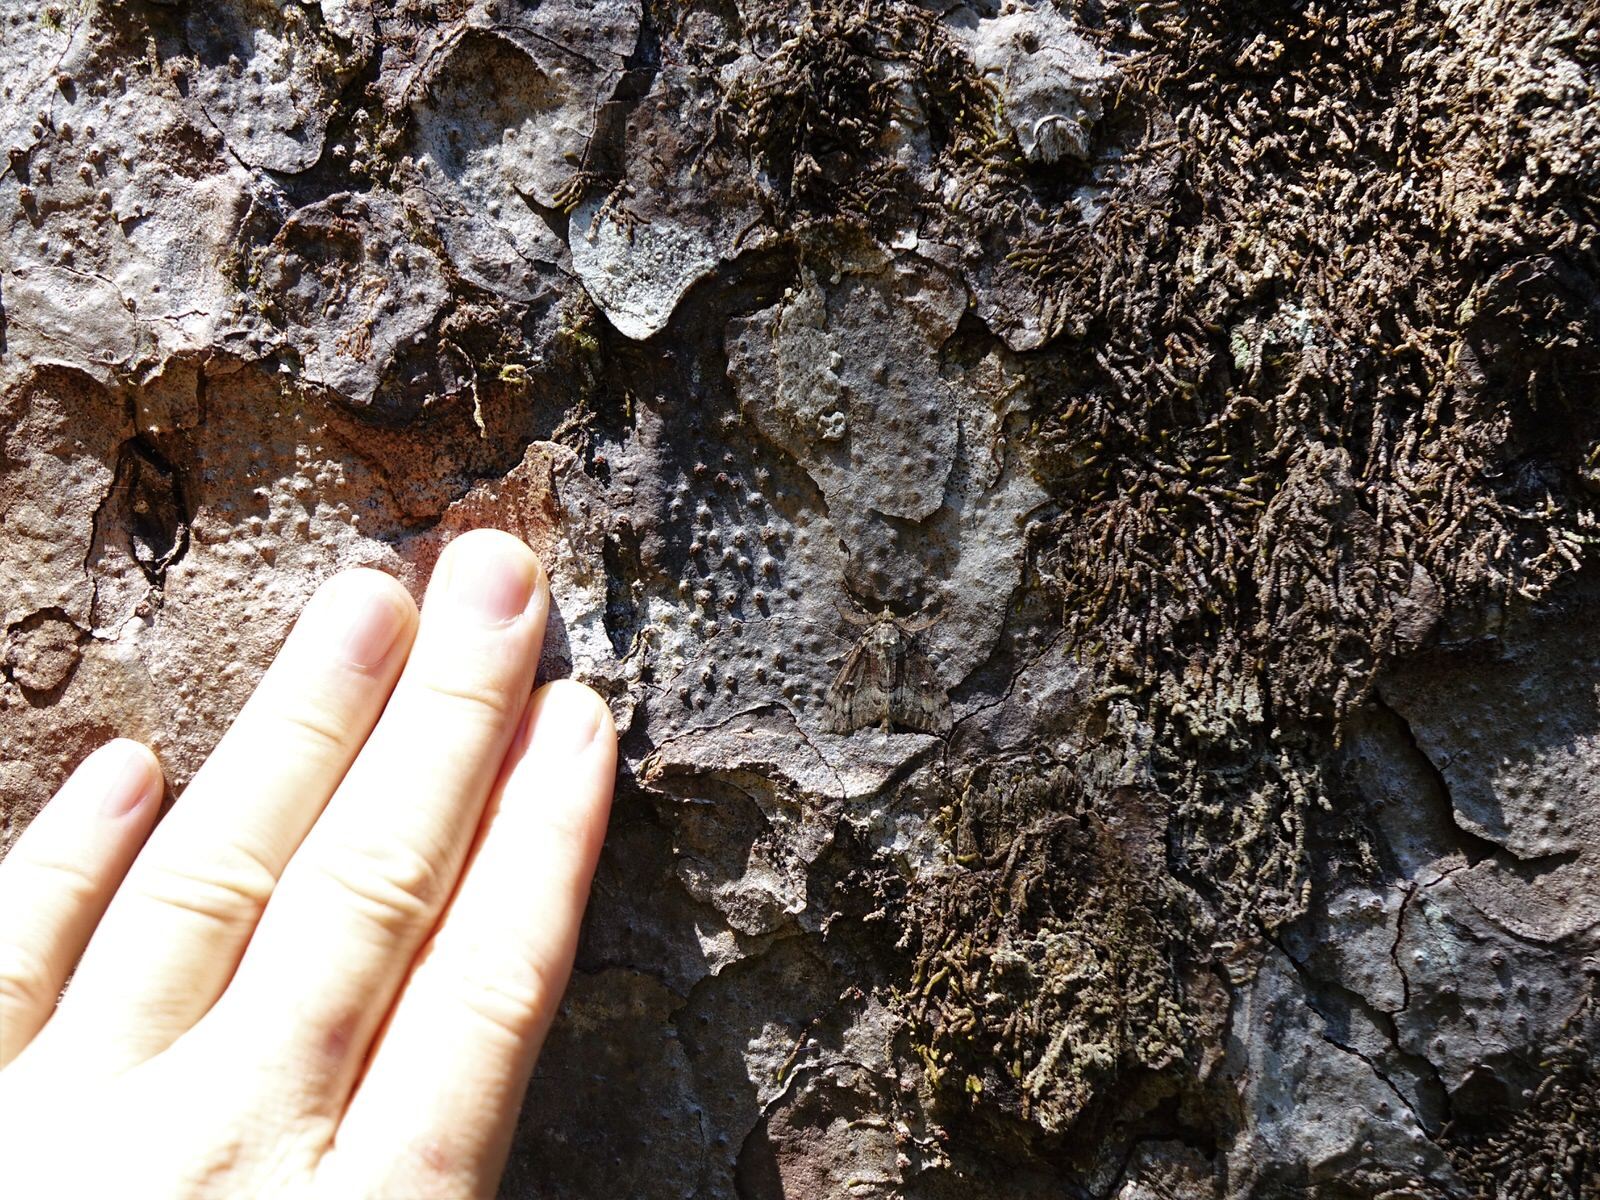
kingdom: Animalia
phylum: Arthropoda
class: Insecta
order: Lepidoptera
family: Geometridae
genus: Pseudocoremia
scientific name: Pseudocoremia suavis
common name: Common forest looper
